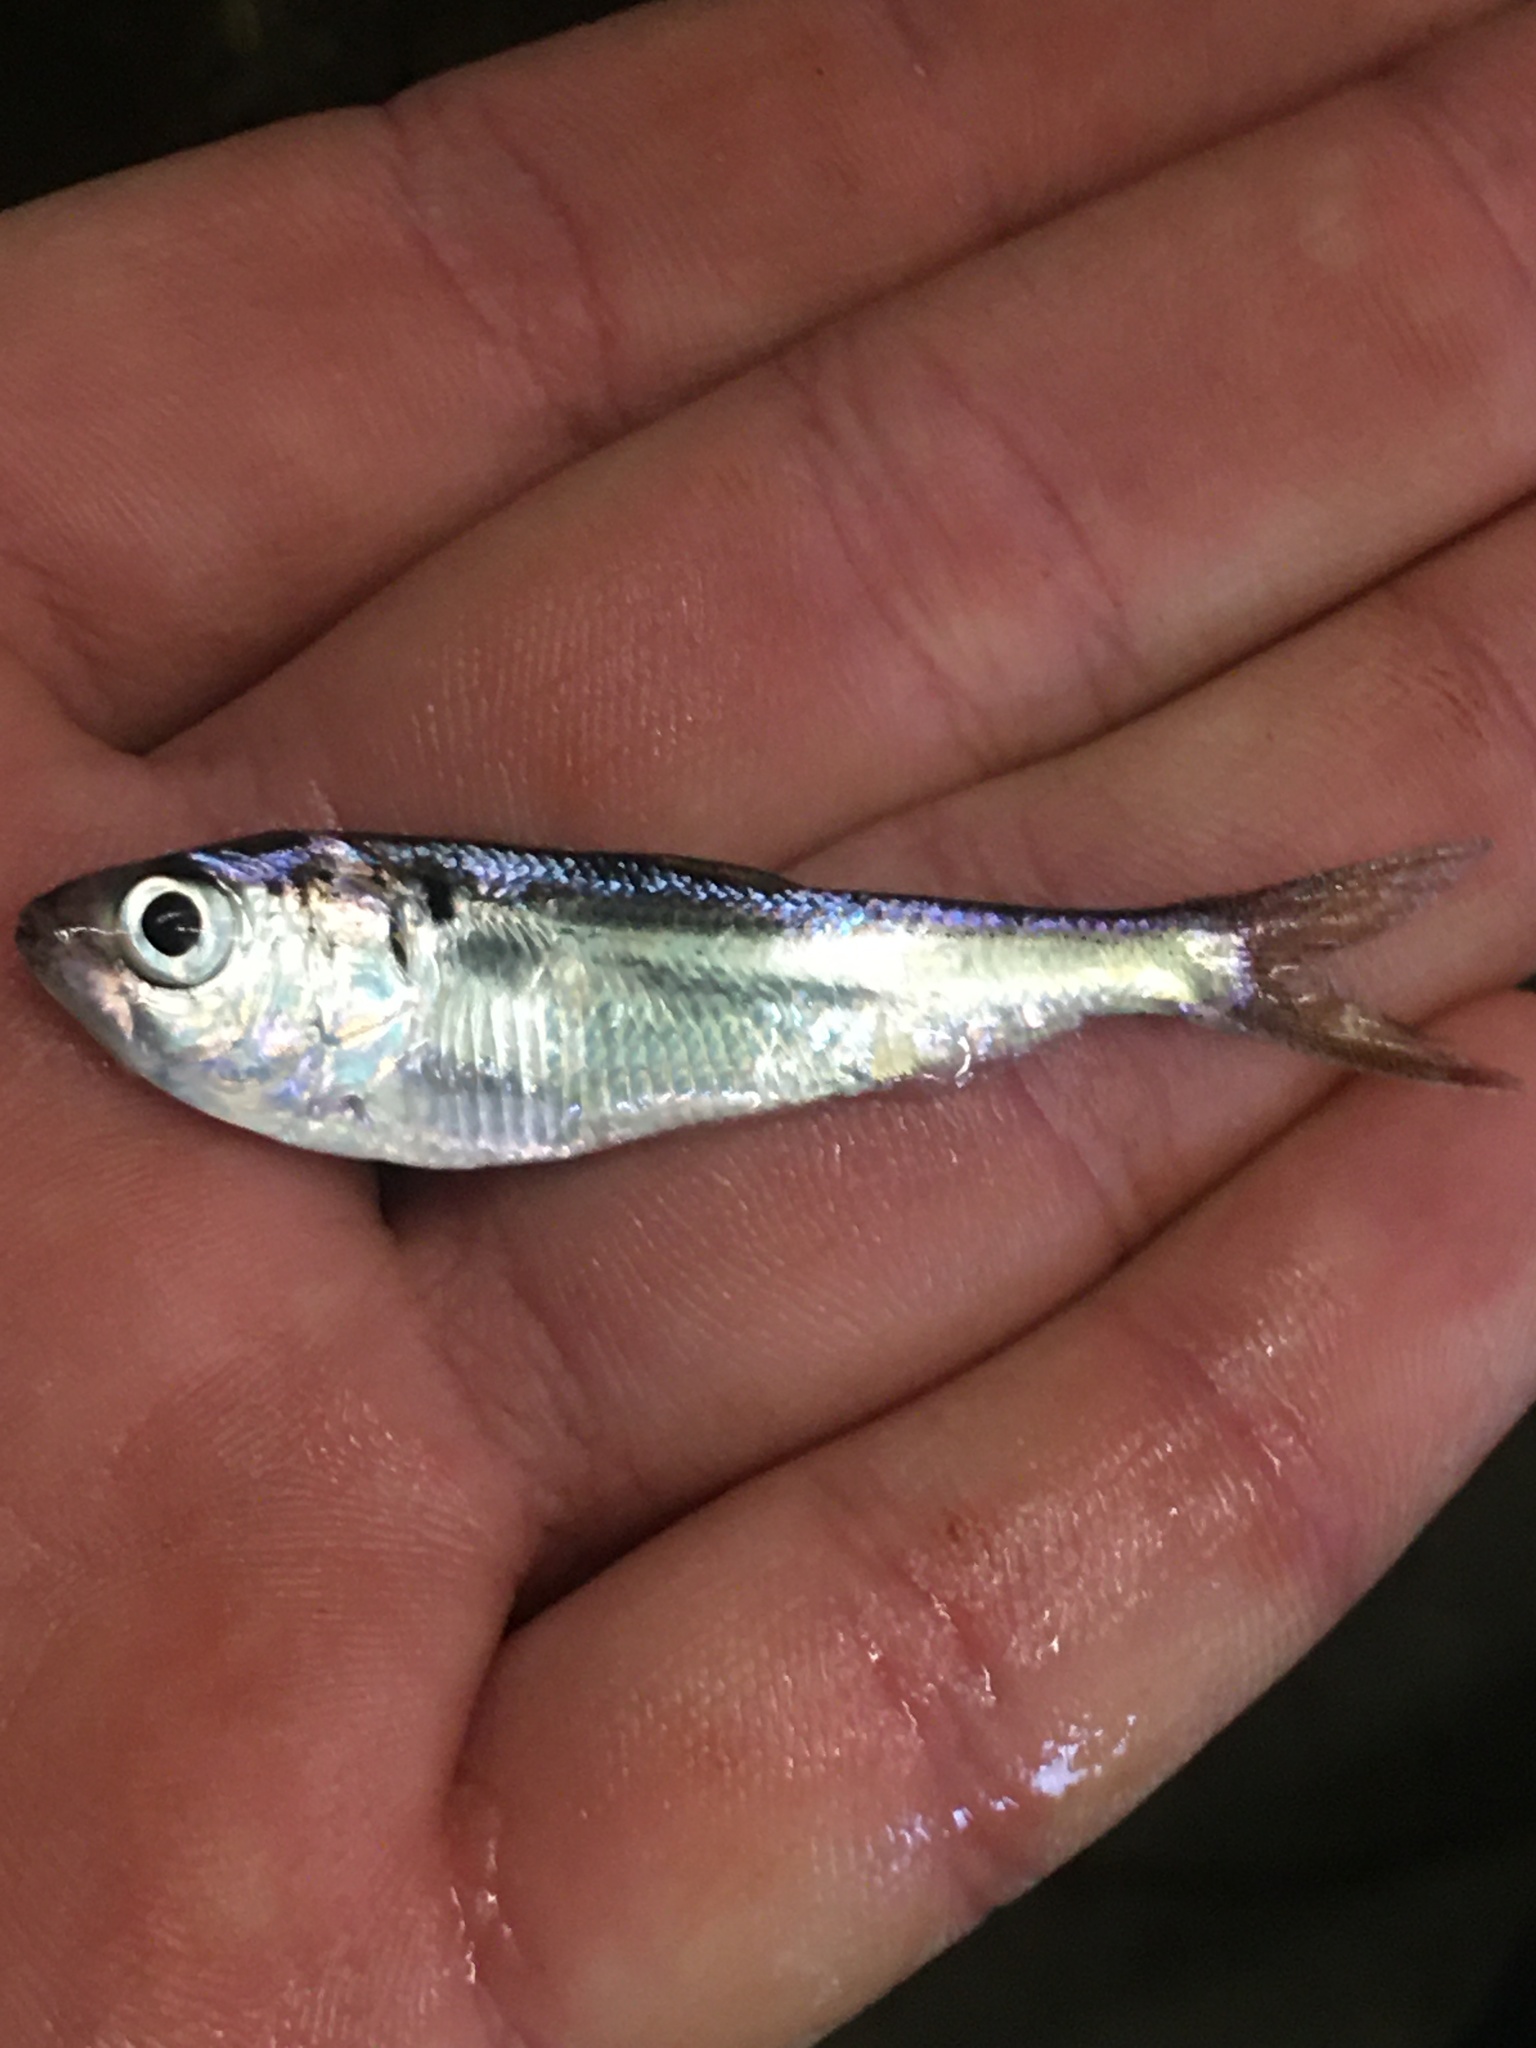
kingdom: Animalia
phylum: Chordata
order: Clupeiformes
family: Clupeidae
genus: Dorosoma
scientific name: Dorosoma petenense
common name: Threadfin shad
